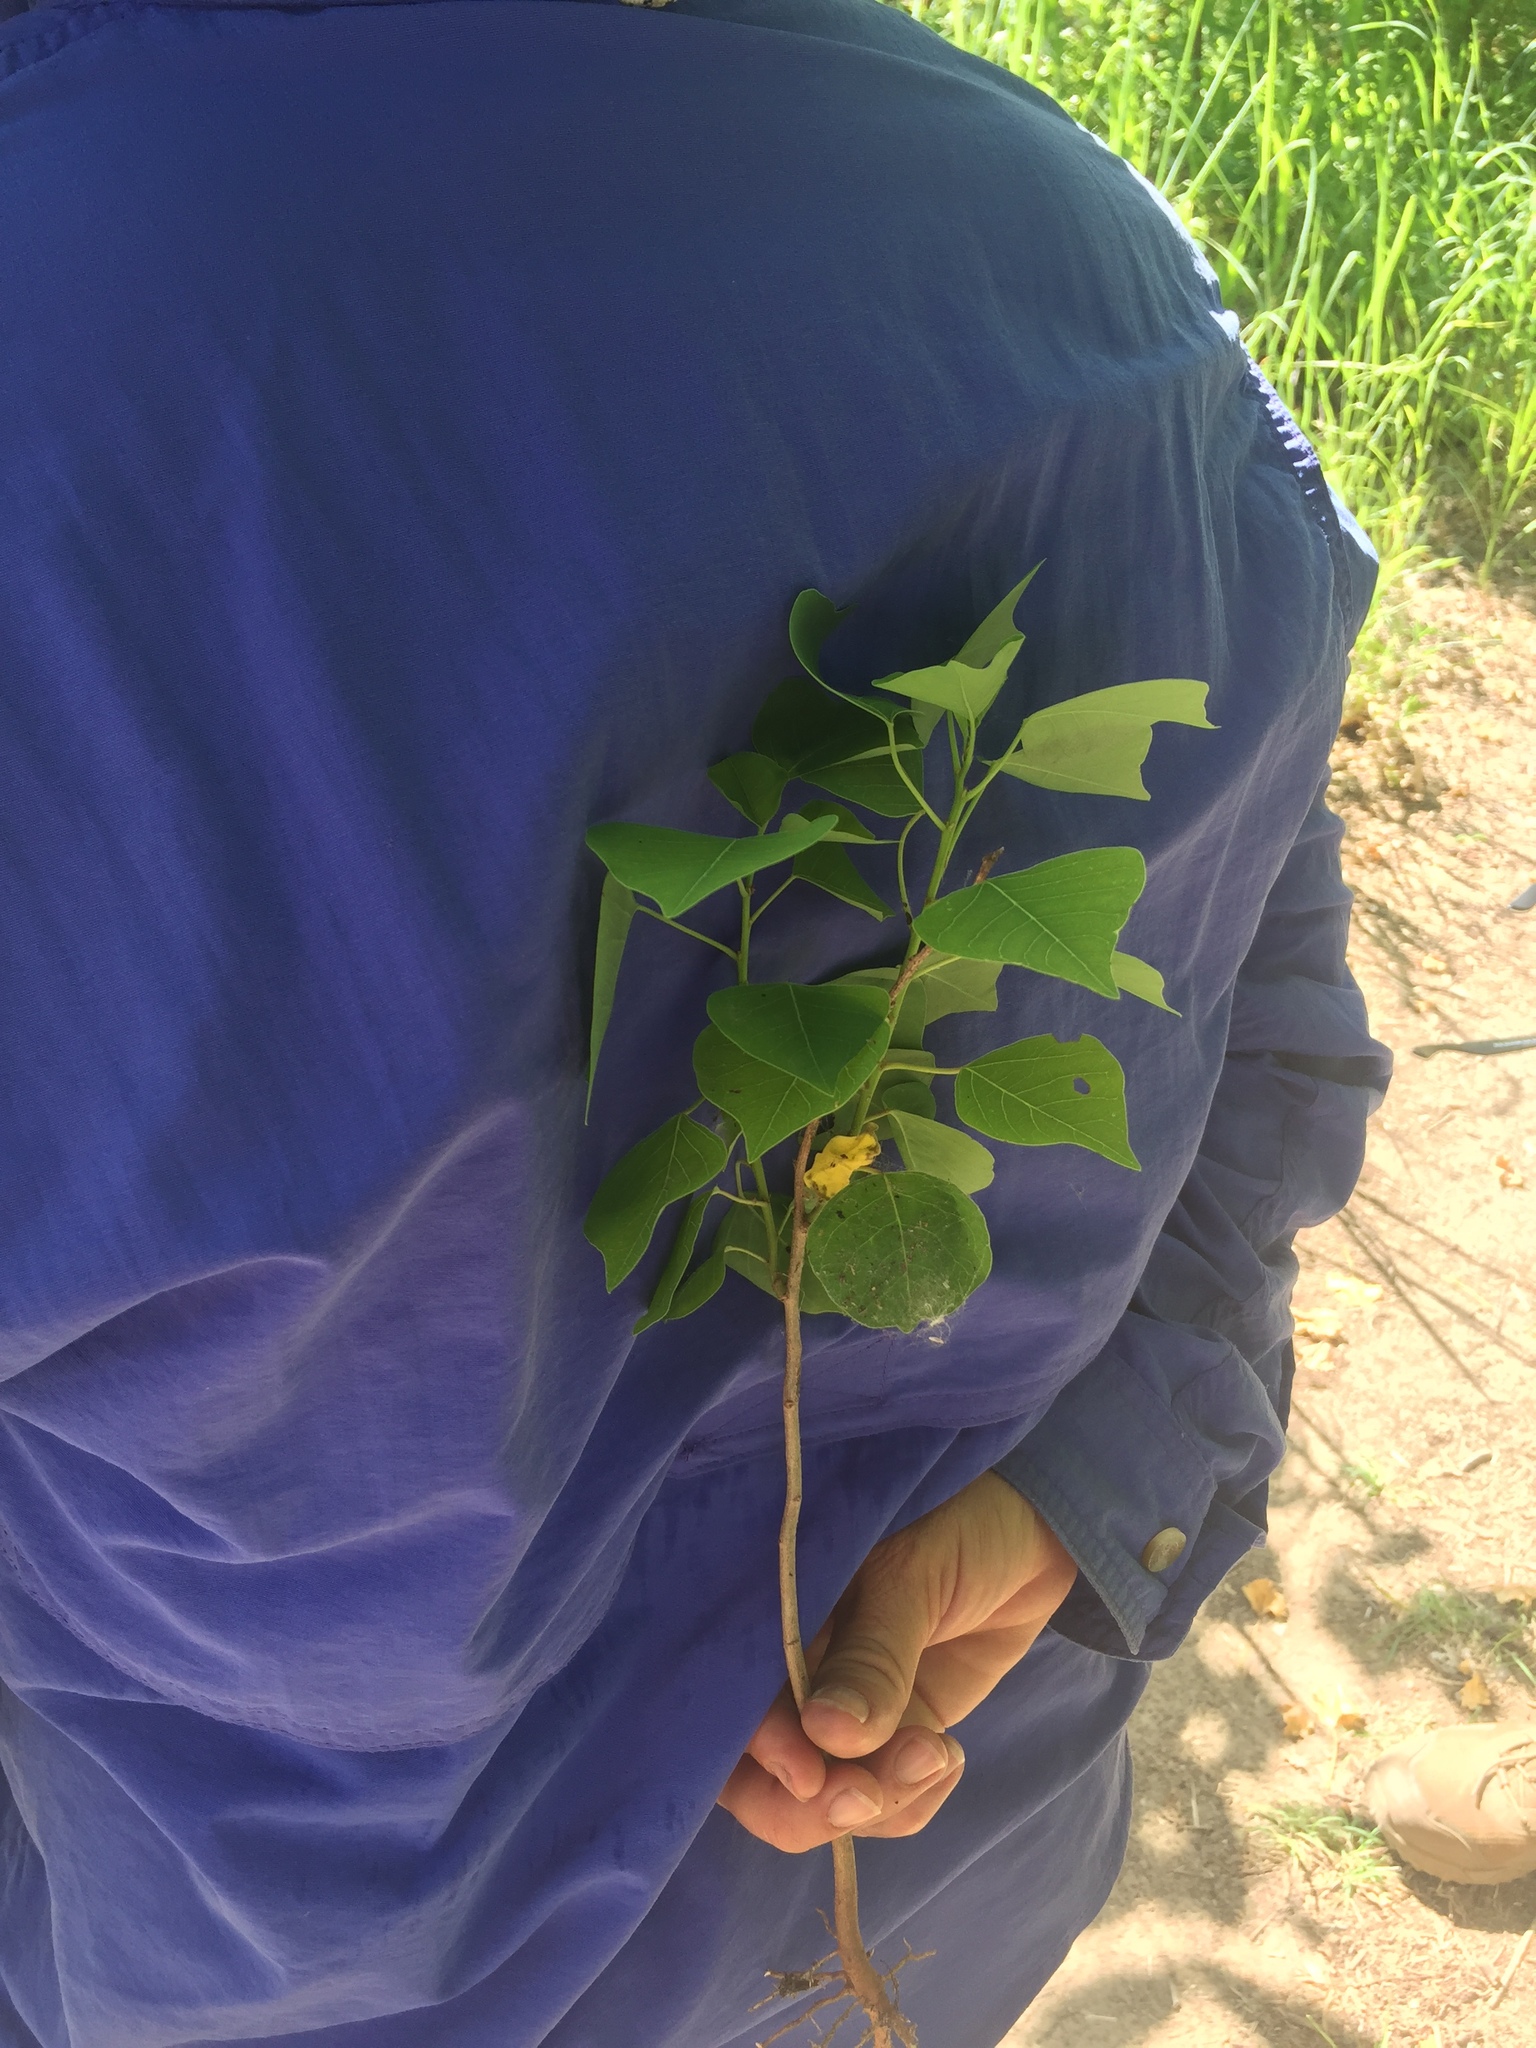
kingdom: Plantae
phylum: Tracheophyta
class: Magnoliopsida
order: Malpighiales
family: Euphorbiaceae
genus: Triadica
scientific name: Triadica sebifera
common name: Chinese tallow
